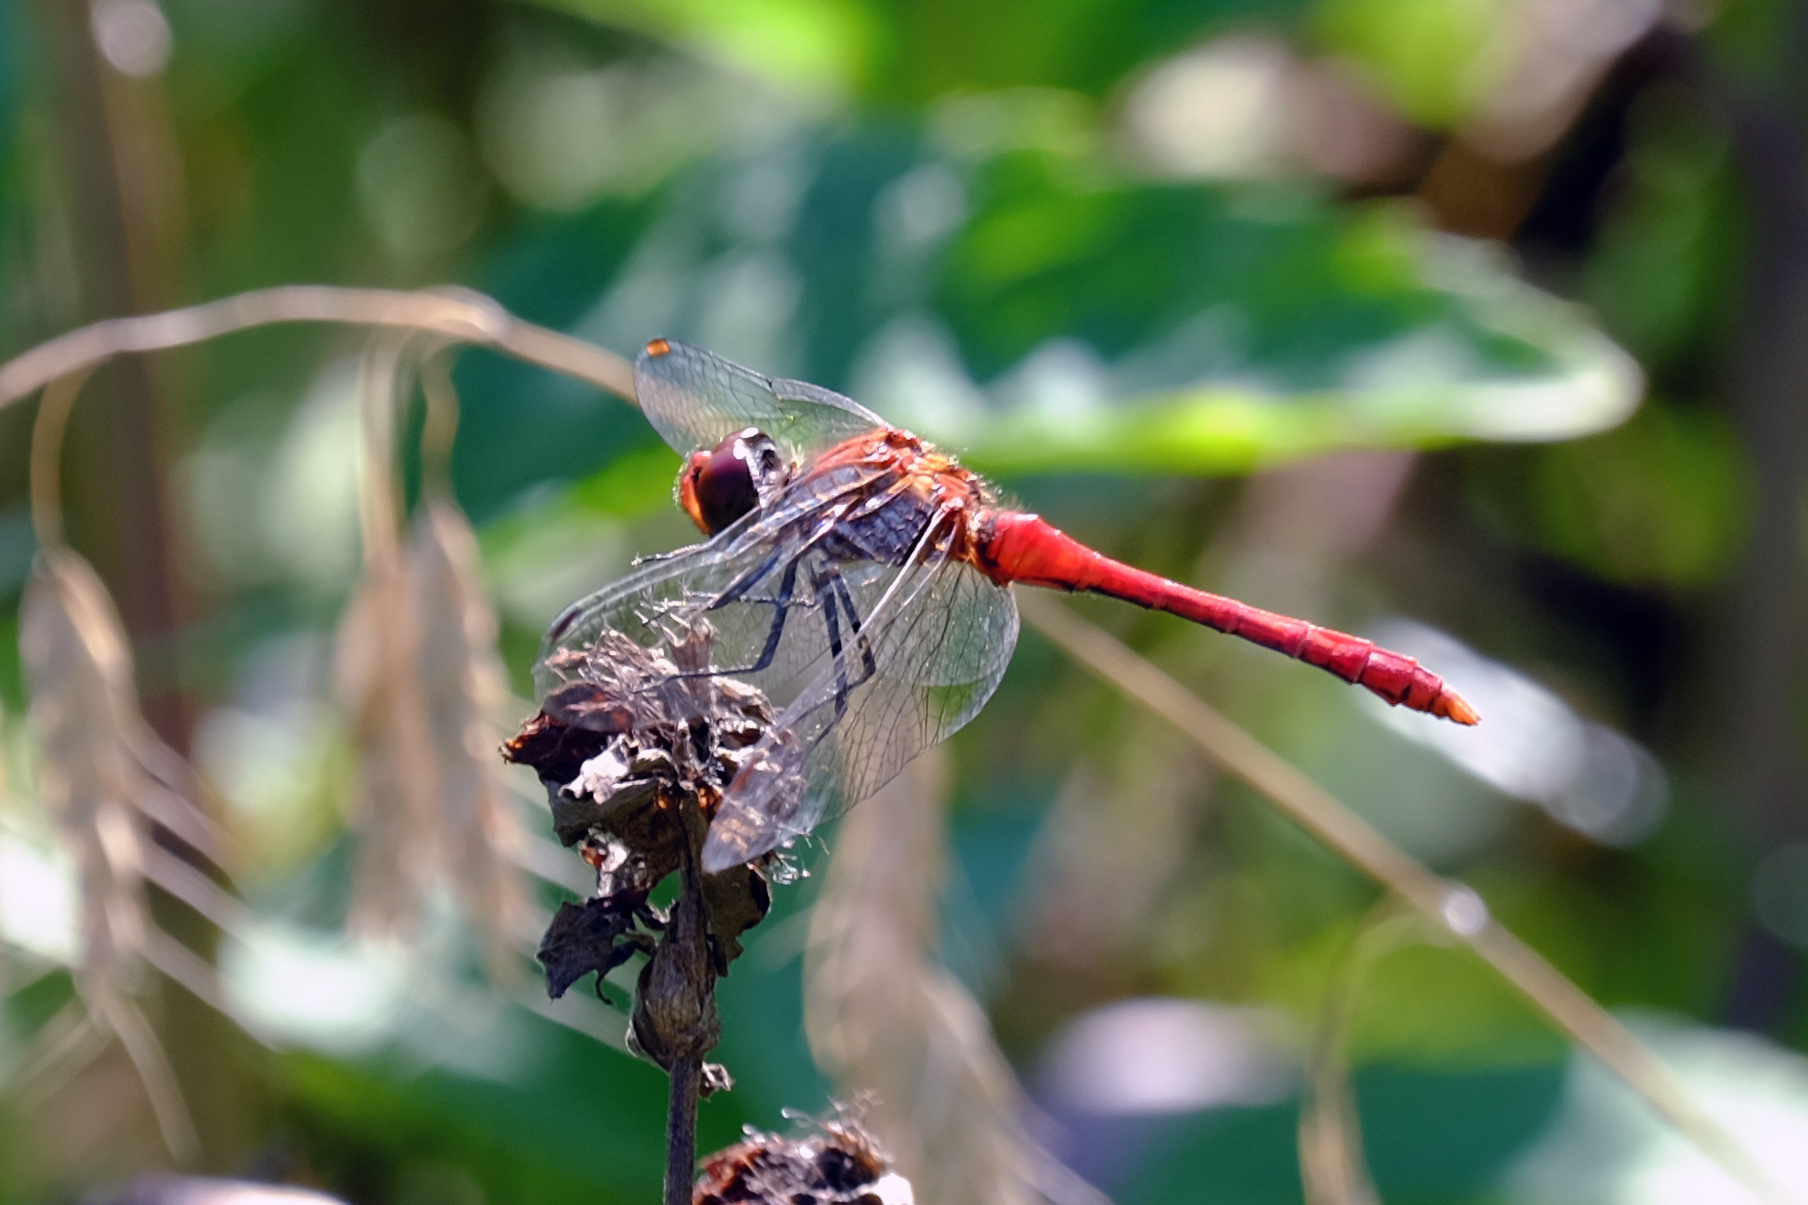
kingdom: Animalia
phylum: Arthropoda
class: Insecta
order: Odonata
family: Libellulidae
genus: Sympetrum
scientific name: Sympetrum sanguineum
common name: Ruddy darter
